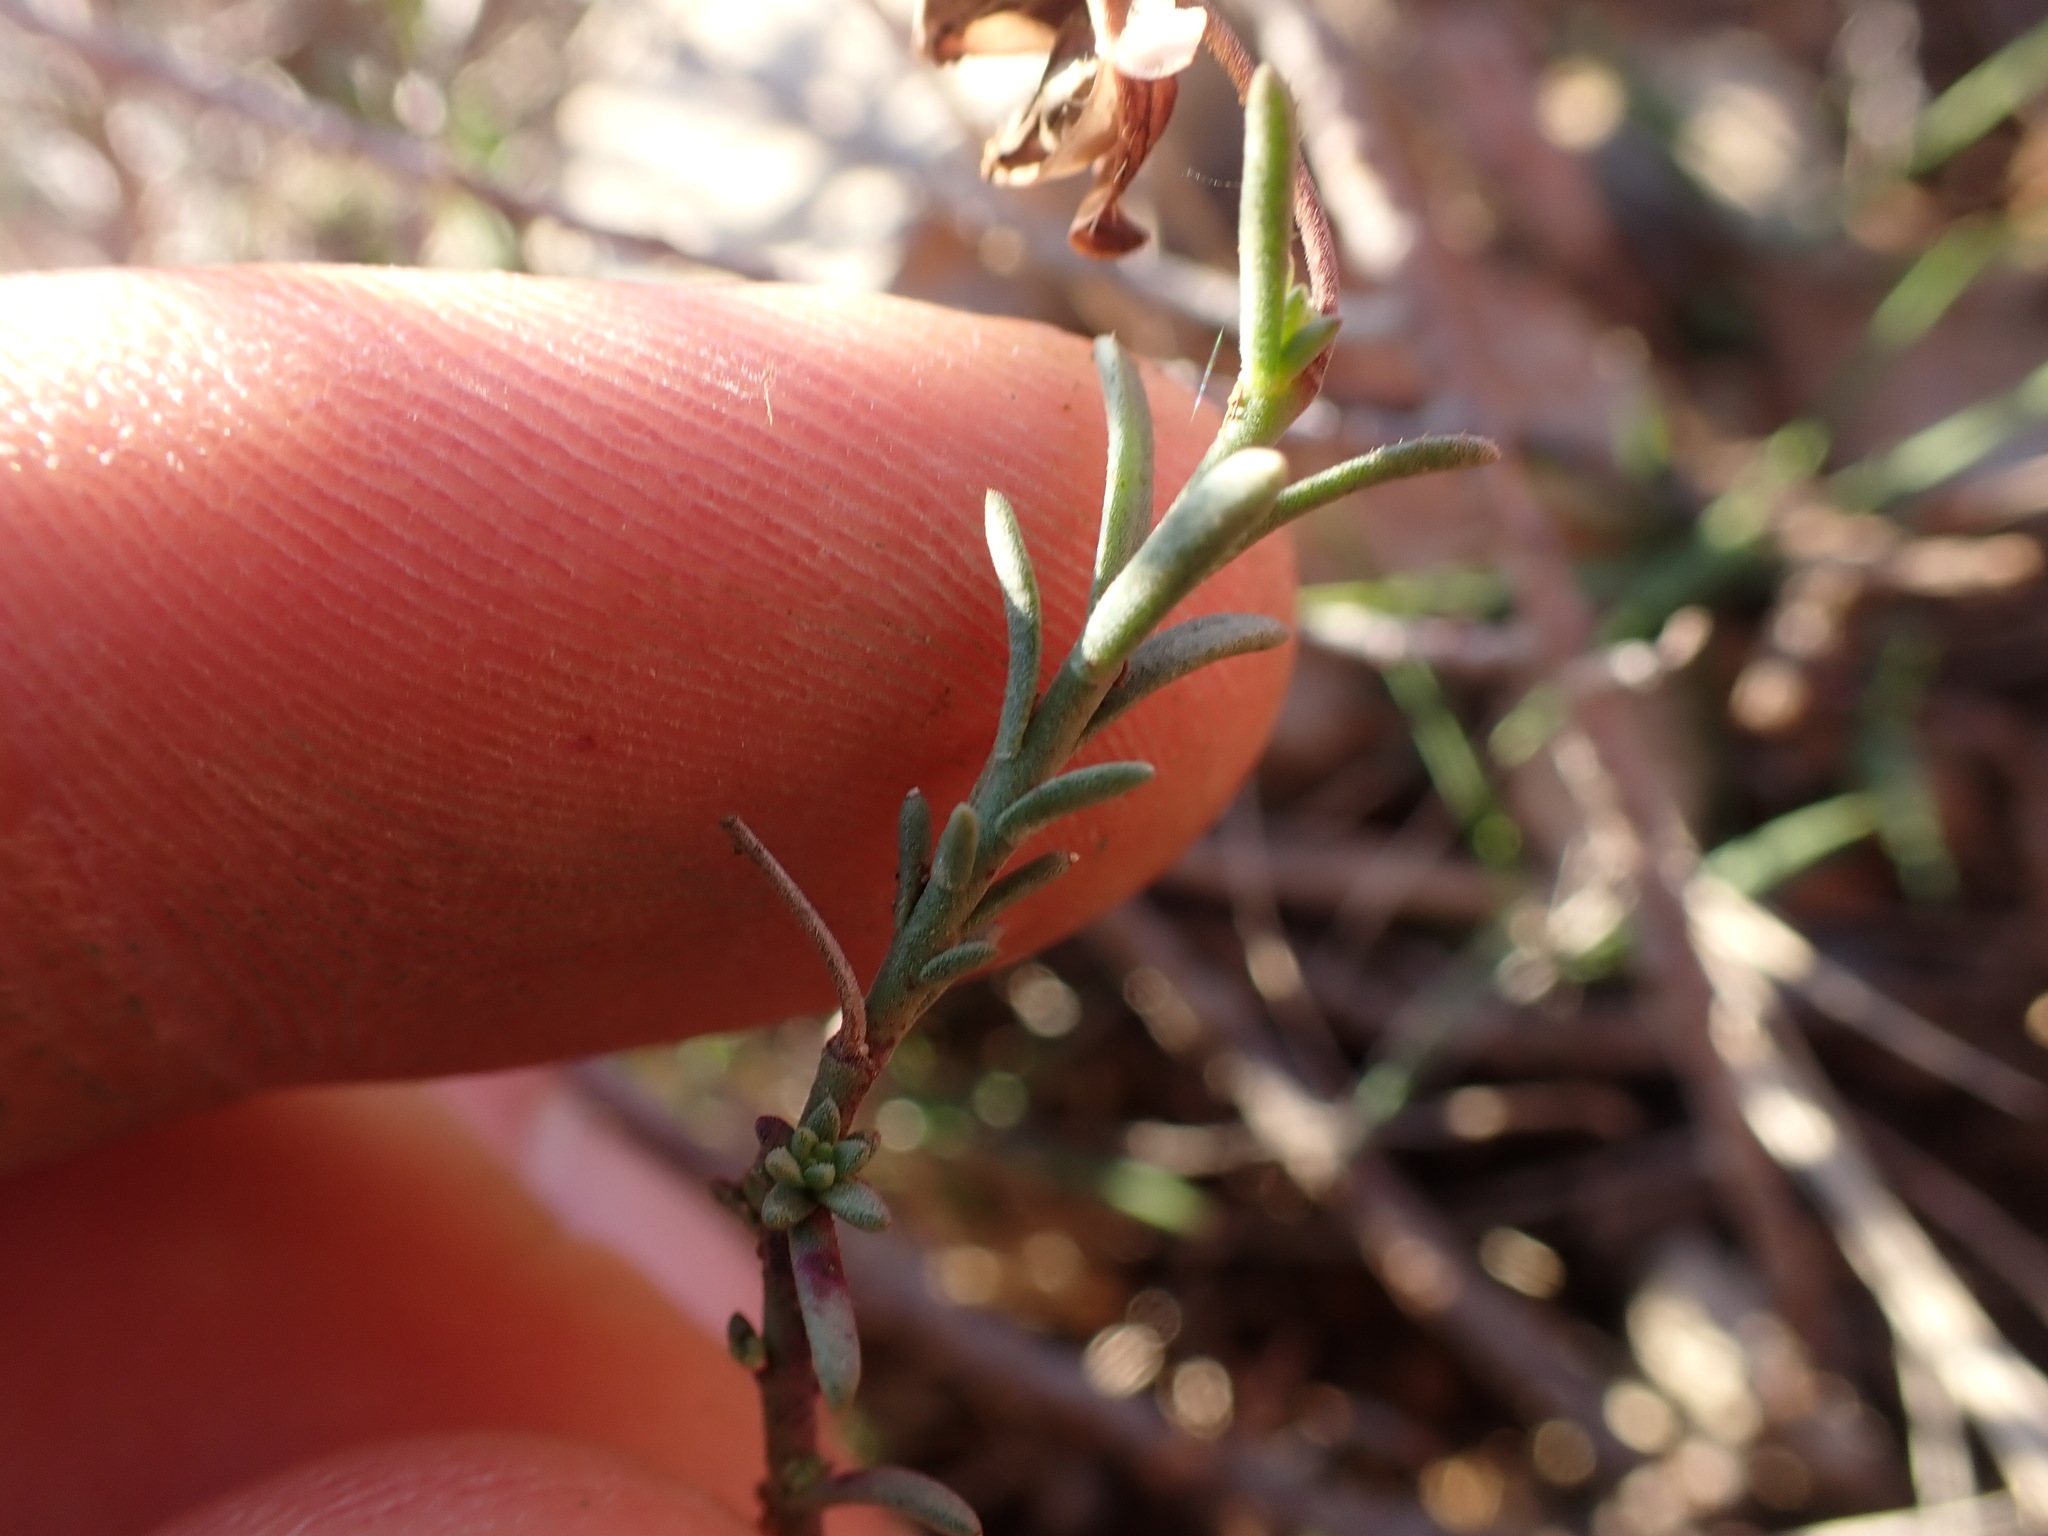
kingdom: Plantae
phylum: Tracheophyta
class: Magnoliopsida
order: Malvales
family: Cistaceae
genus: Fumana
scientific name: Fumana ericifolia
